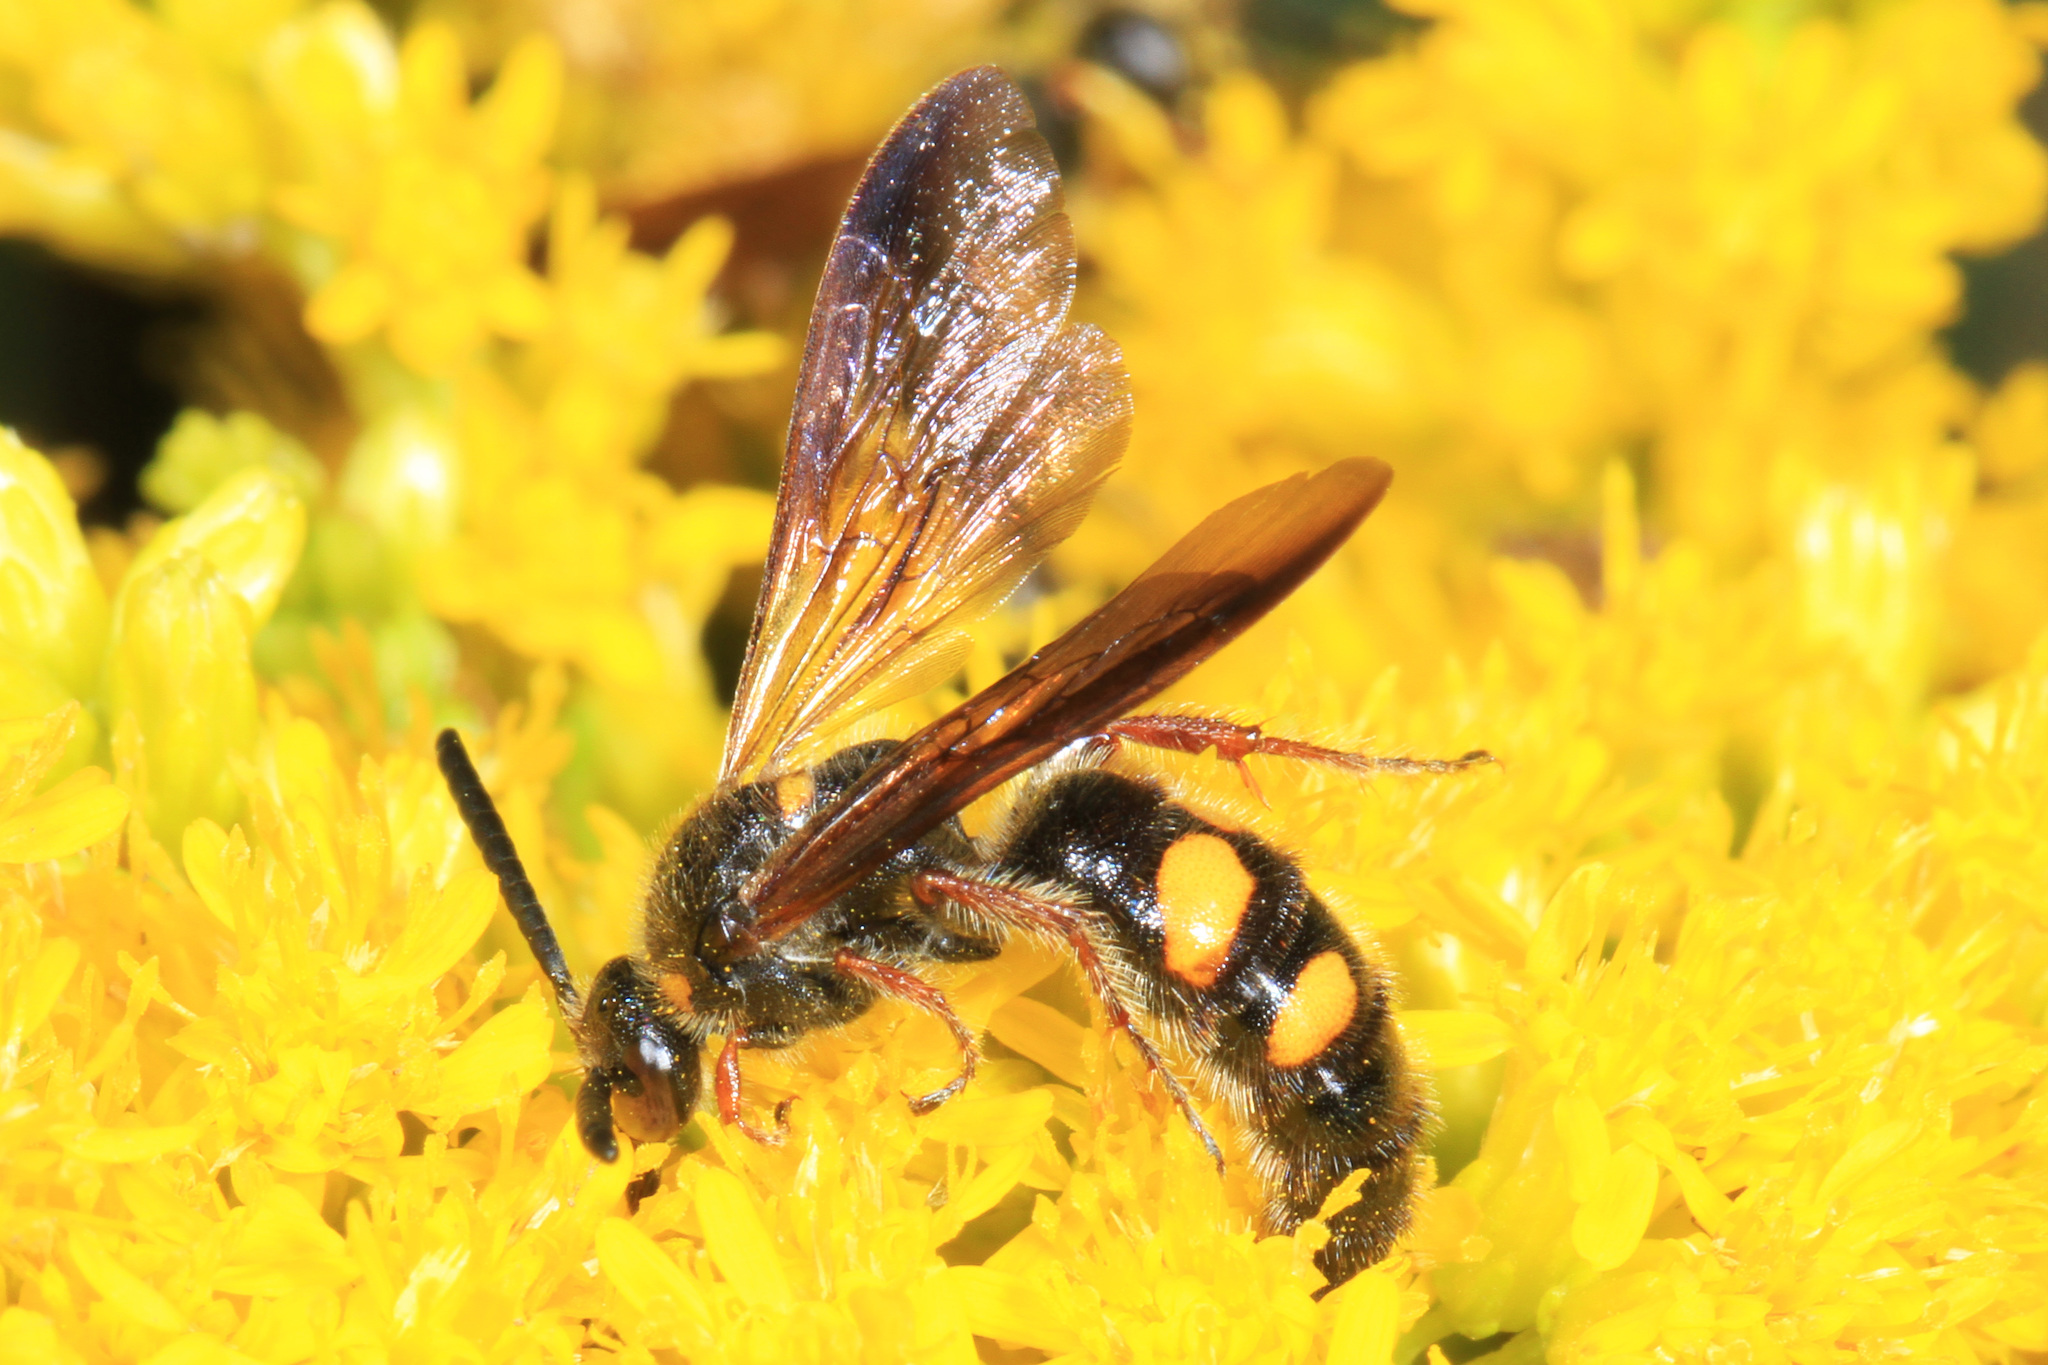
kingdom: Animalia
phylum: Arthropoda
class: Insecta
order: Hymenoptera
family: Scoliidae
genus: Scolia
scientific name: Scolia nobilitata
